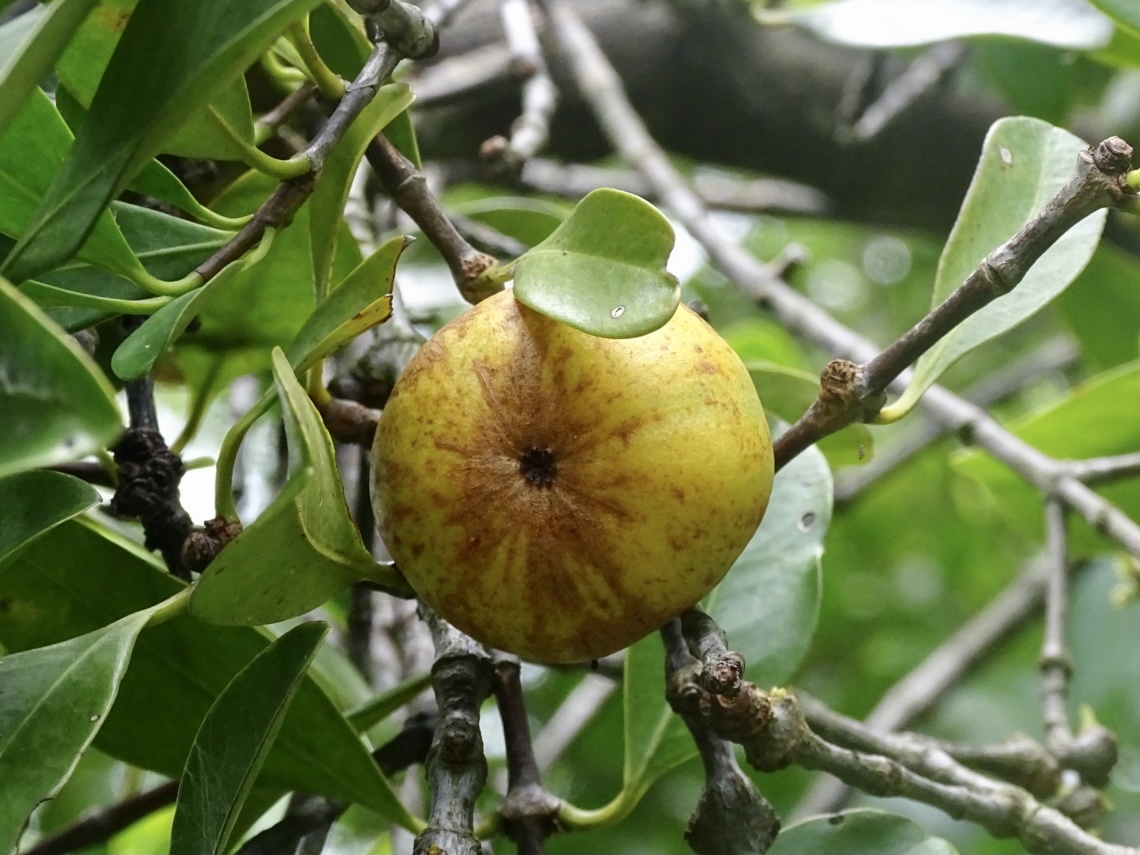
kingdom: Plantae
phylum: Tracheophyta
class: Magnoliopsida
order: Malpighiales
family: Clusiaceae
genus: Garcinia
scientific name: Garcinia oblongifolia
